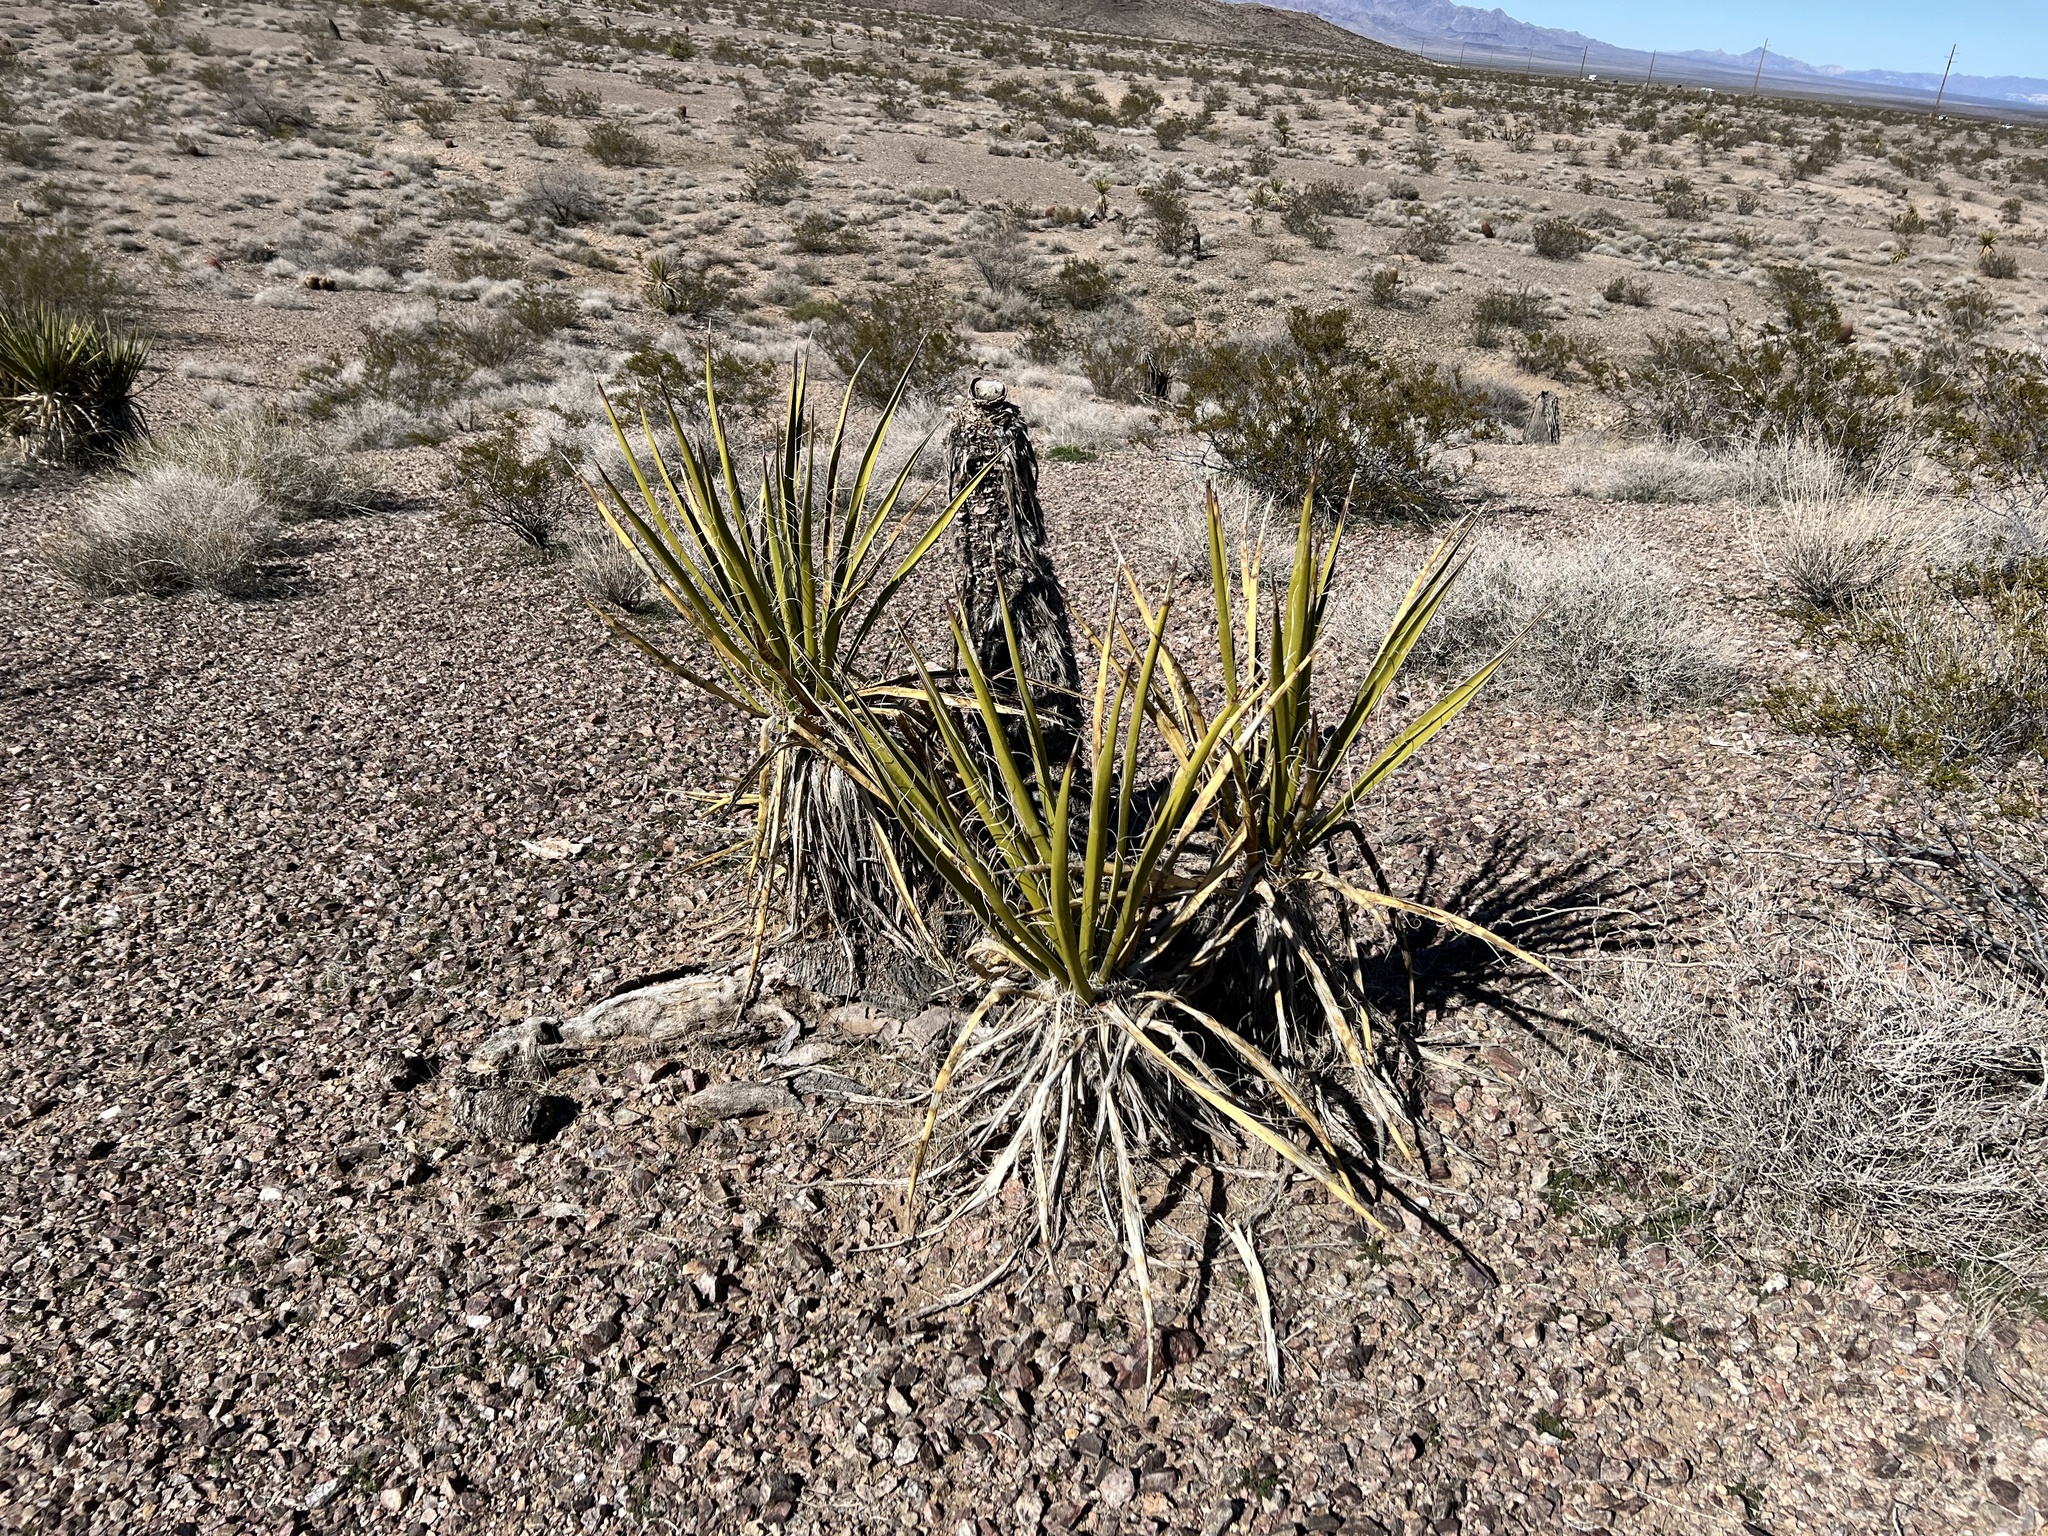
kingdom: Plantae
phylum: Tracheophyta
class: Liliopsida
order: Asparagales
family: Asparagaceae
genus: Yucca
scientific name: Yucca schidigera
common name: Mojave yucca
